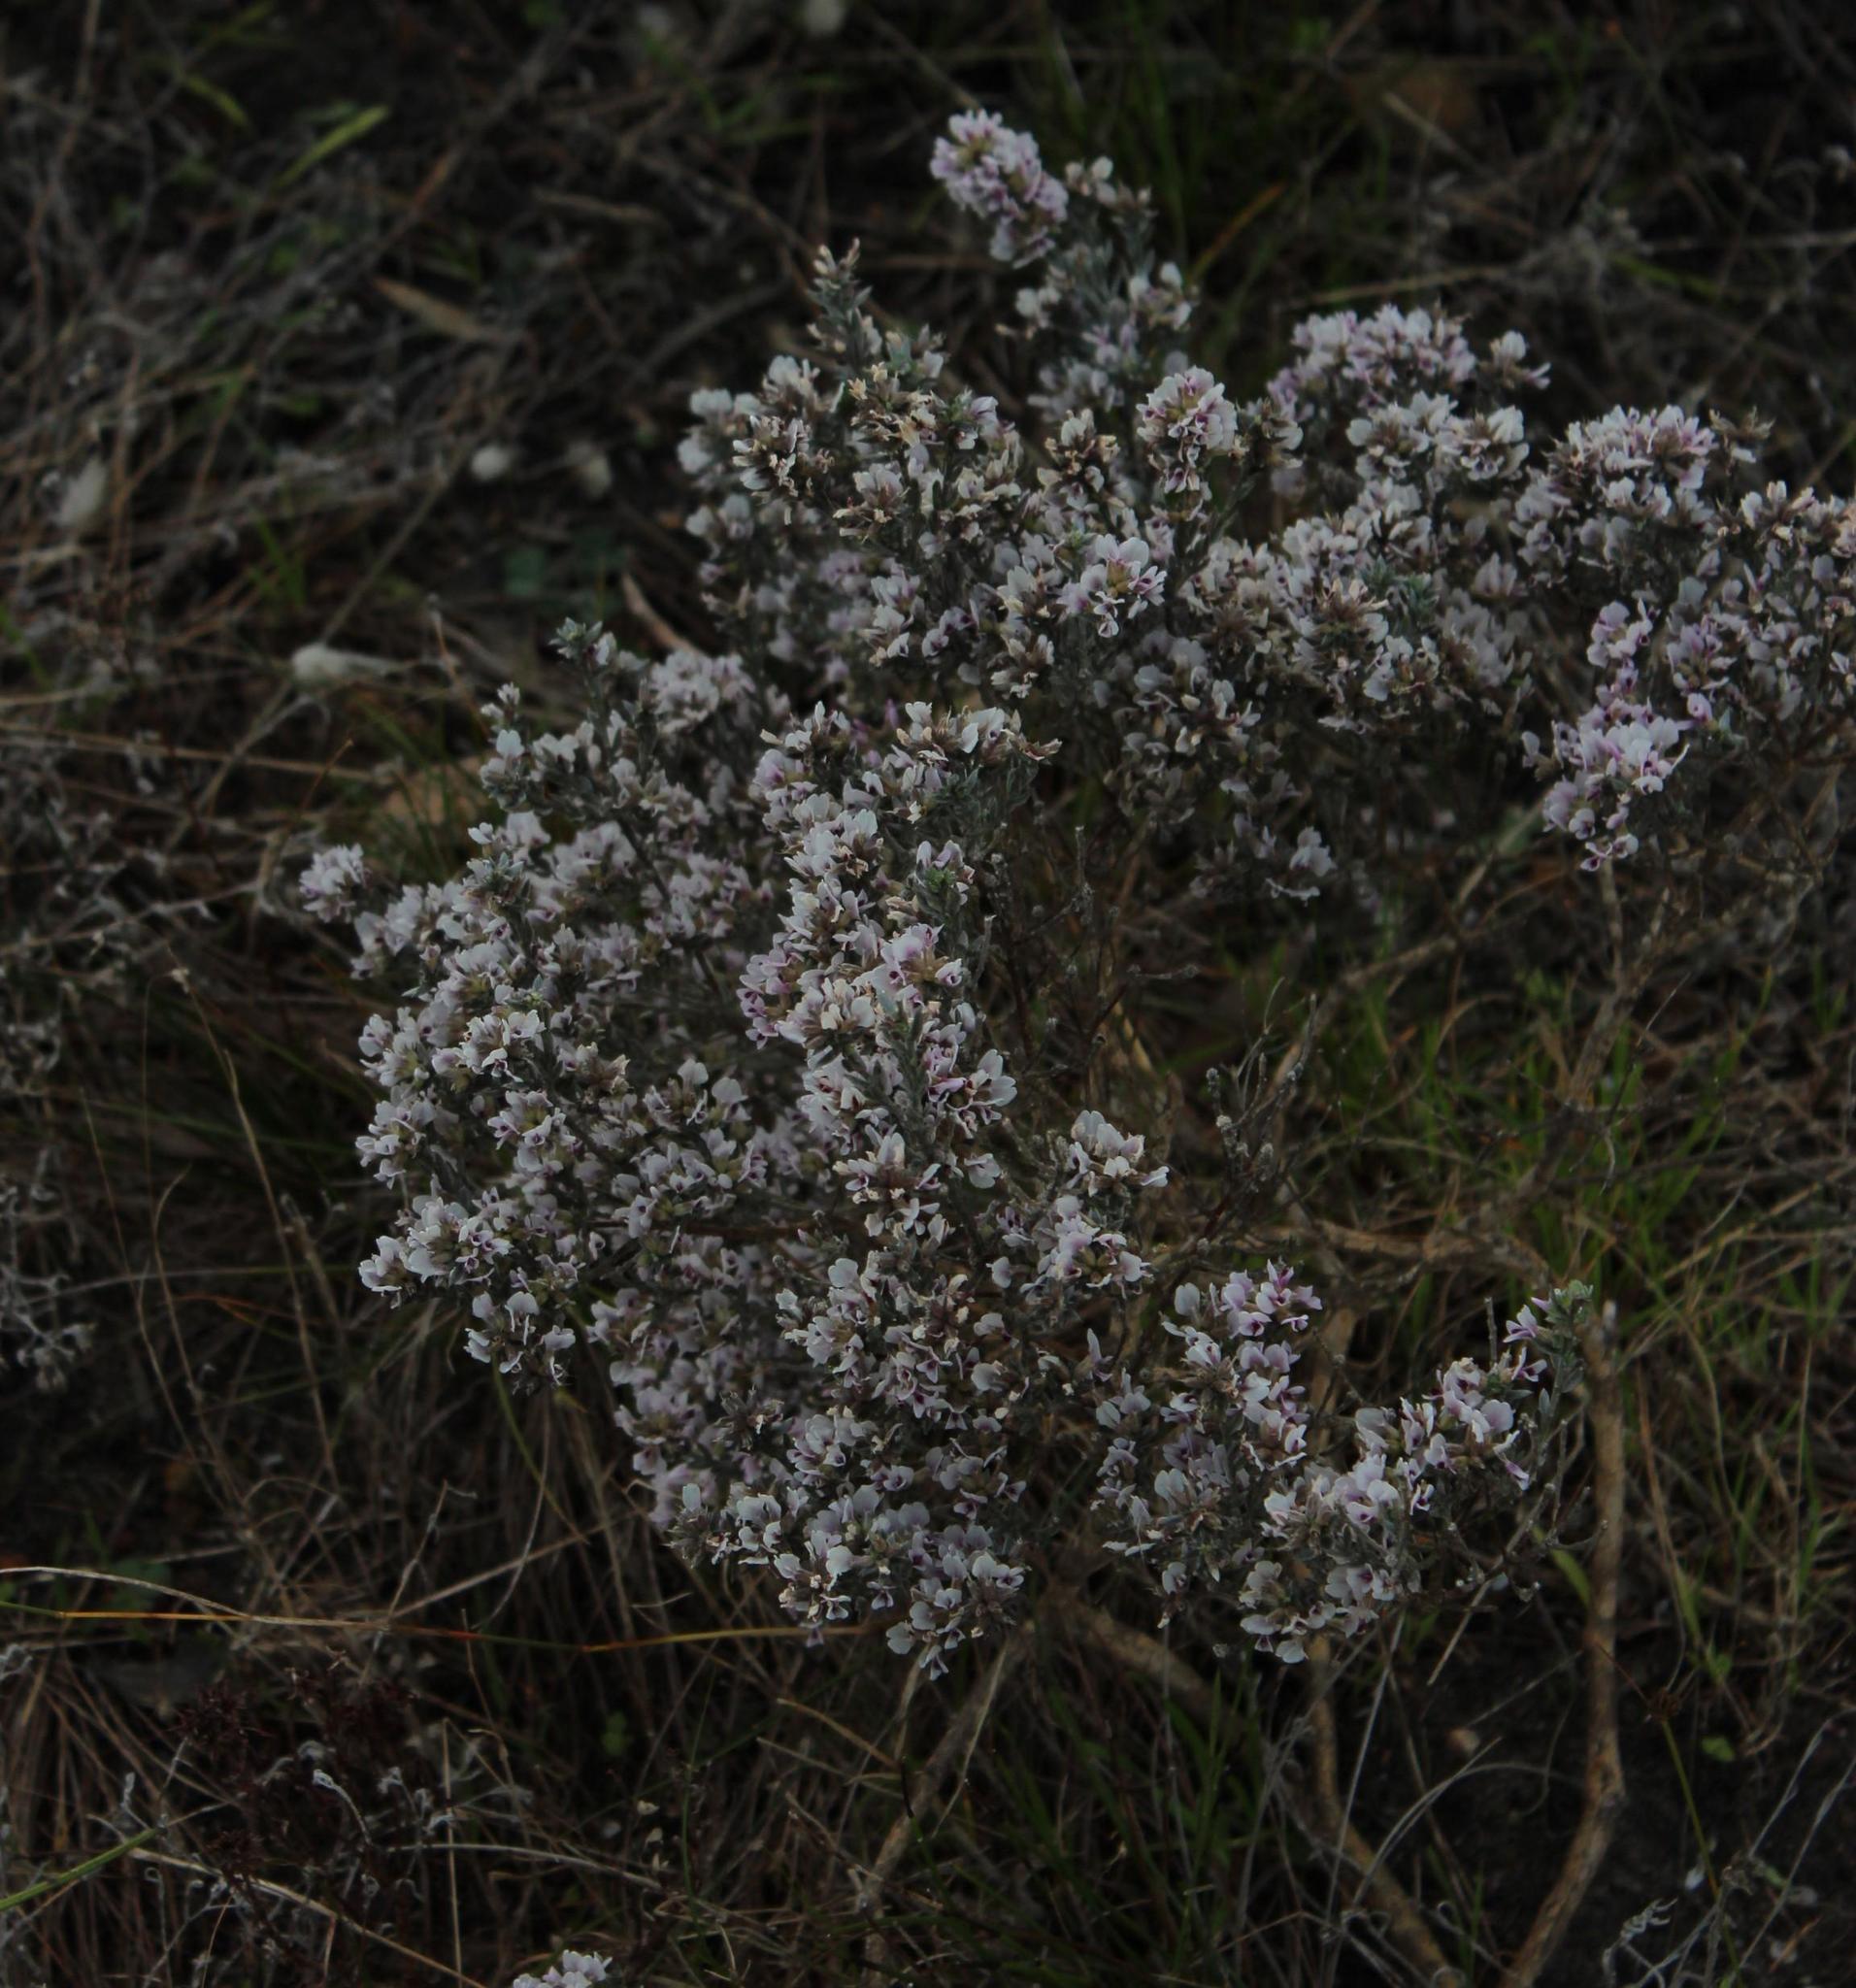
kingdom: Plantae
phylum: Tracheophyta
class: Magnoliopsida
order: Fabales
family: Fabaceae
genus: Amphithalea
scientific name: Amphithalea ericifolia
